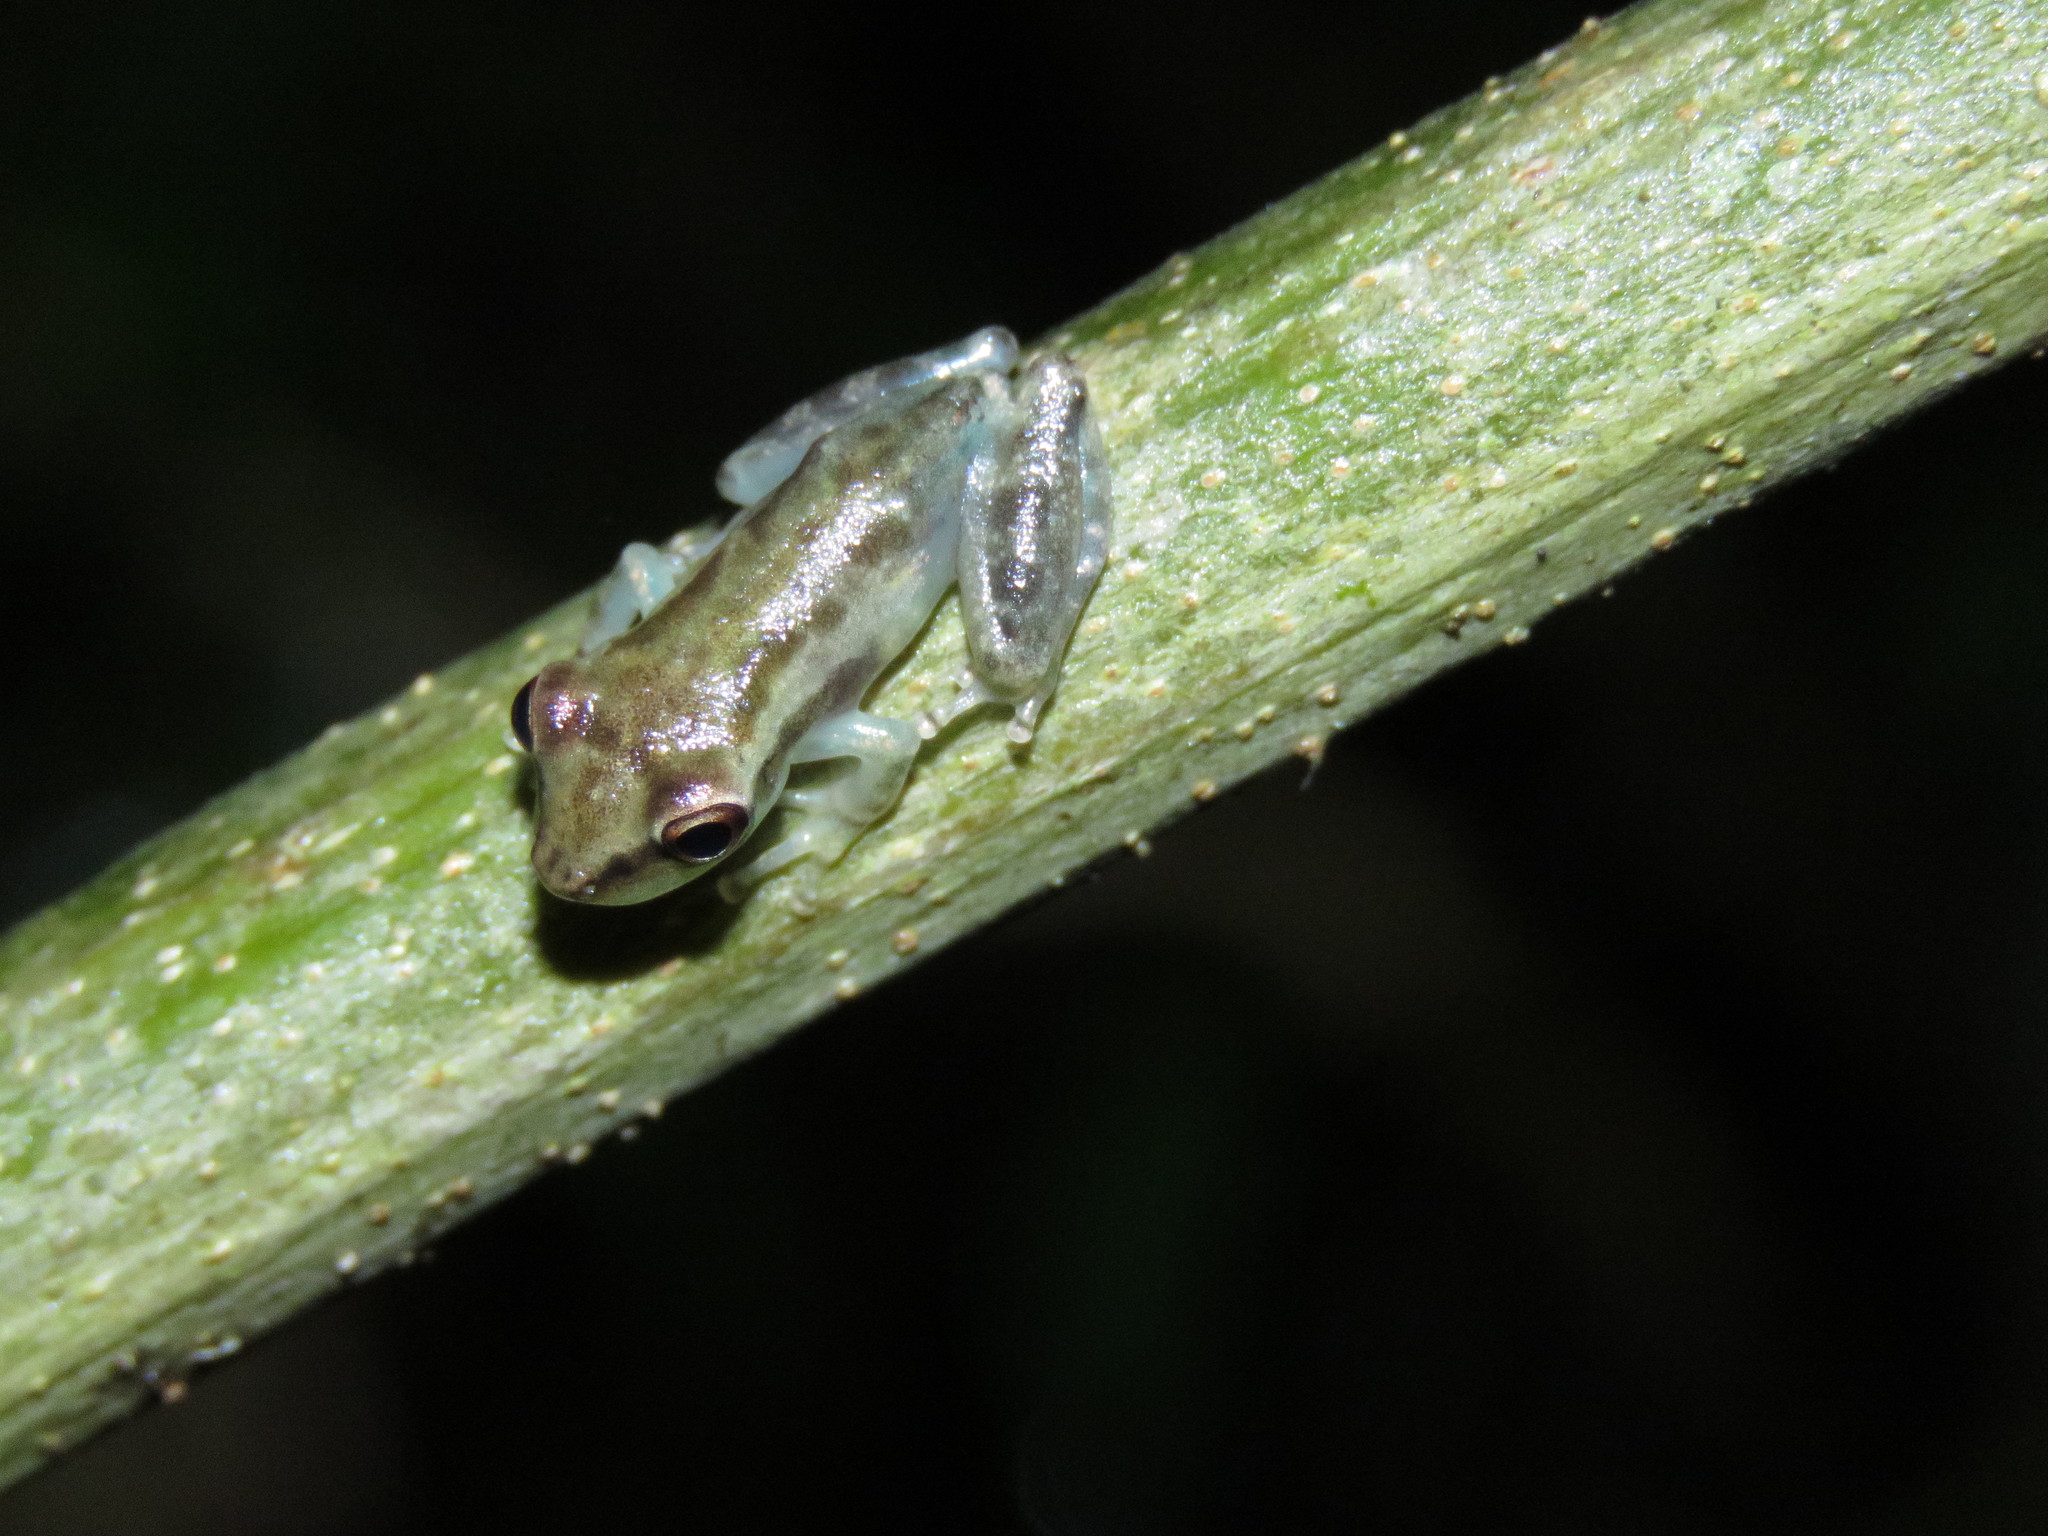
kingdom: Animalia
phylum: Chordata
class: Amphibia
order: Anura
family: Hylidae
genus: Scinax
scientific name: Scinax ruber
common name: Red snouted treefrog
